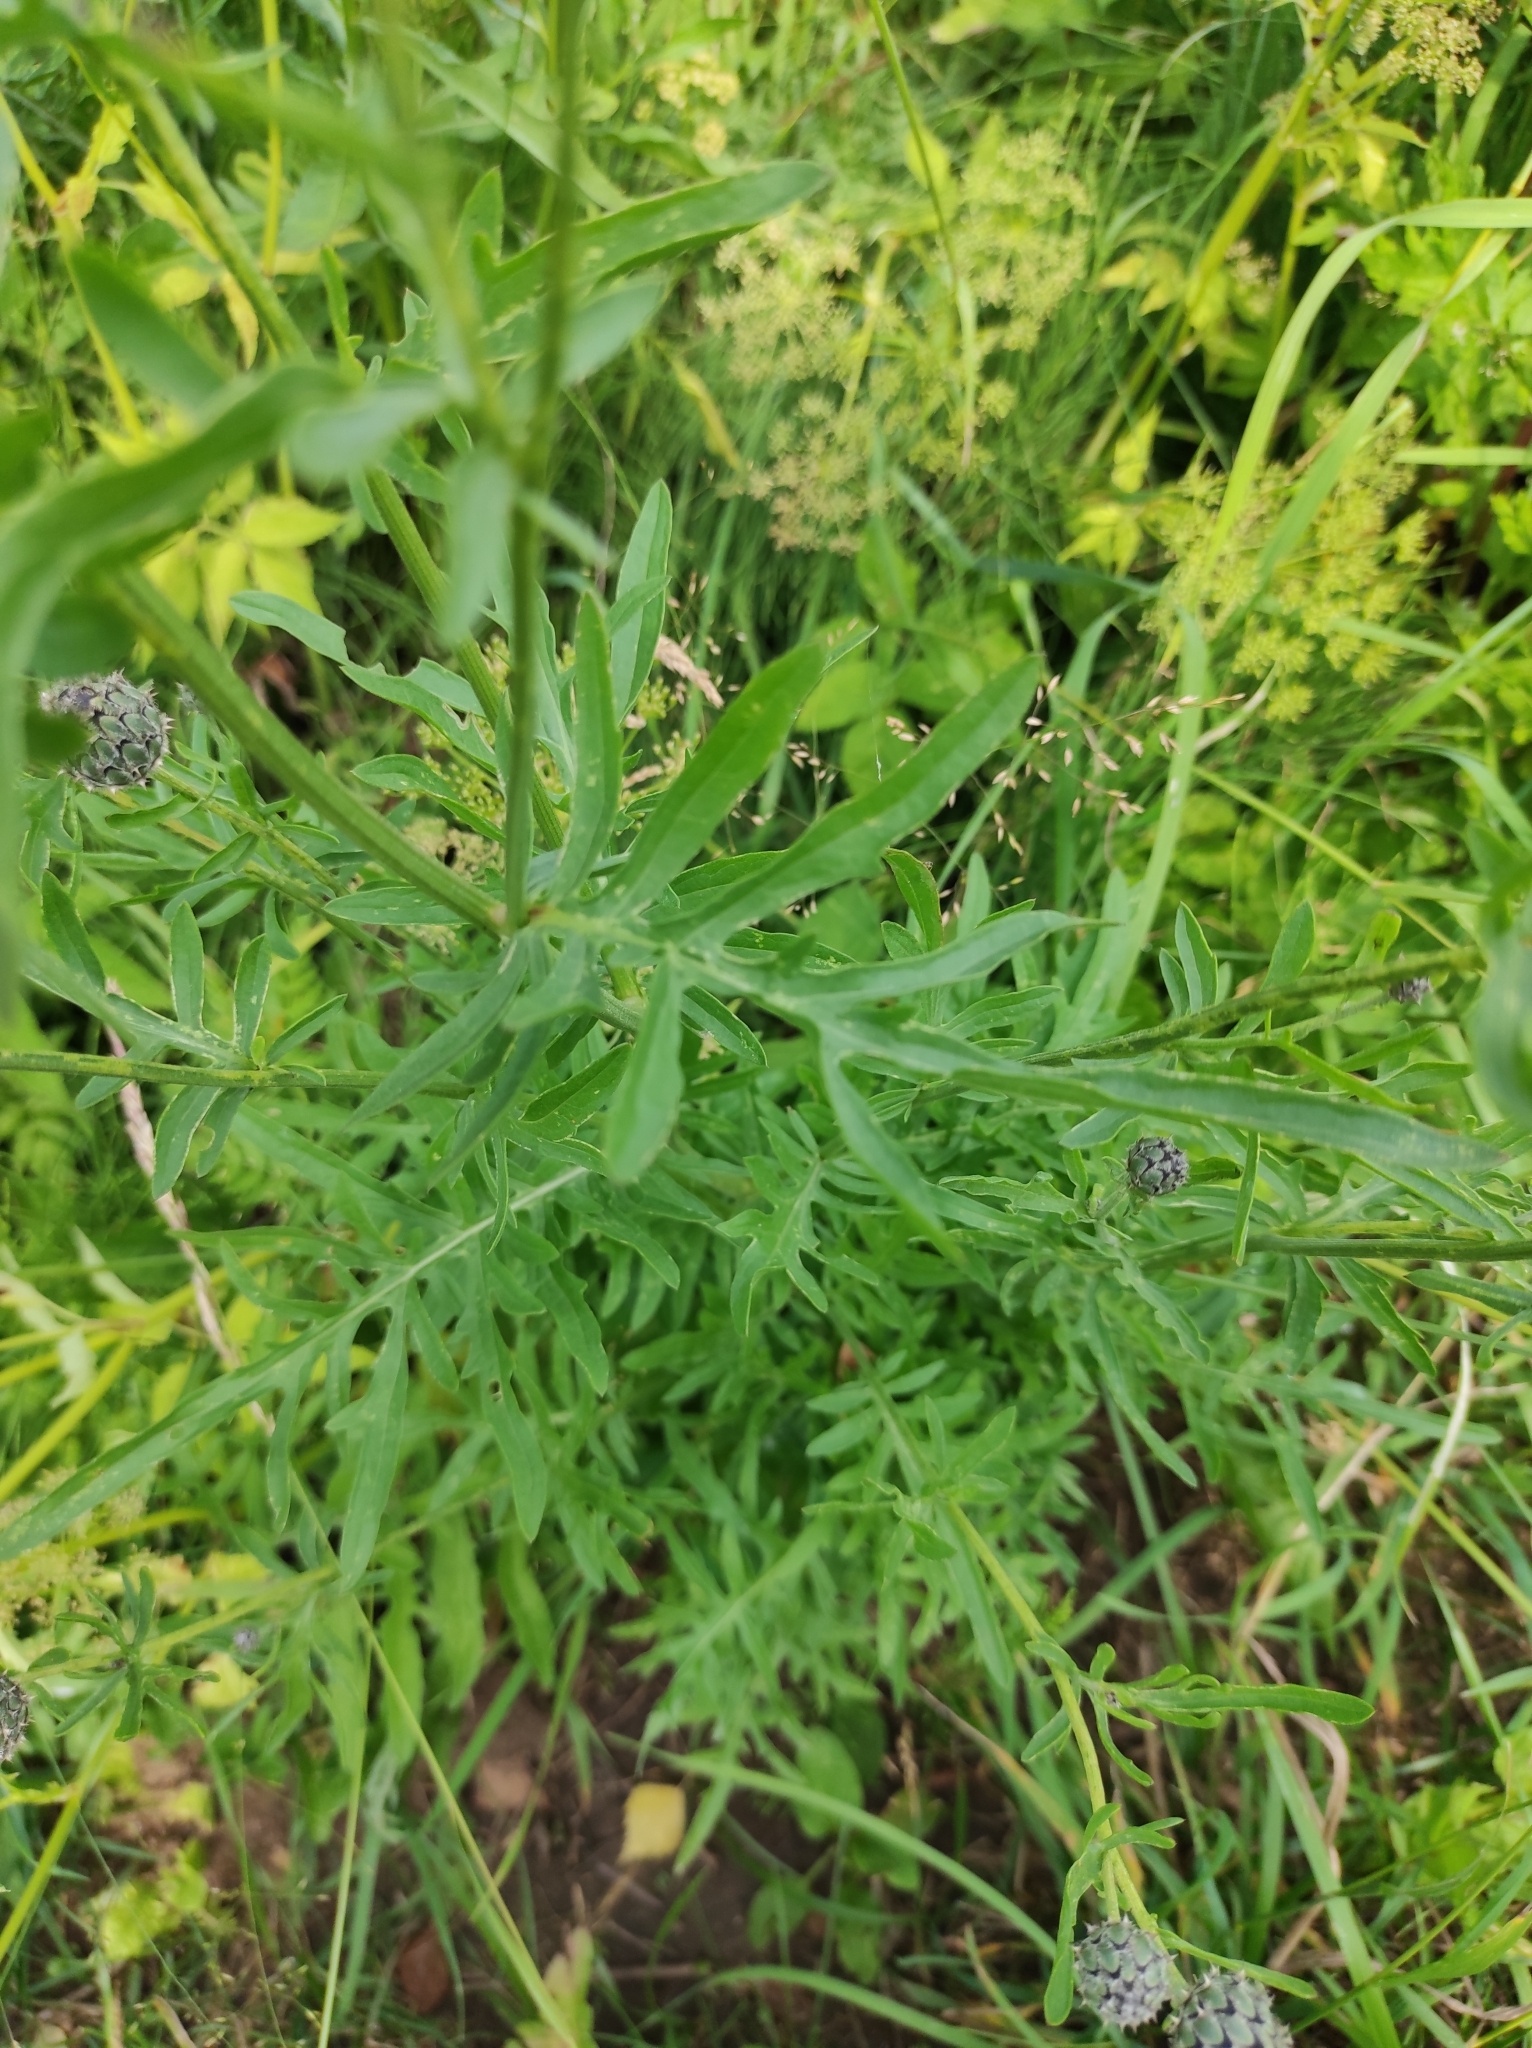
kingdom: Plantae
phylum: Tracheophyta
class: Magnoliopsida
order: Asterales
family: Campanulaceae
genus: Campanula
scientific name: Campanula rapunculoides
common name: Creeping bellflower
